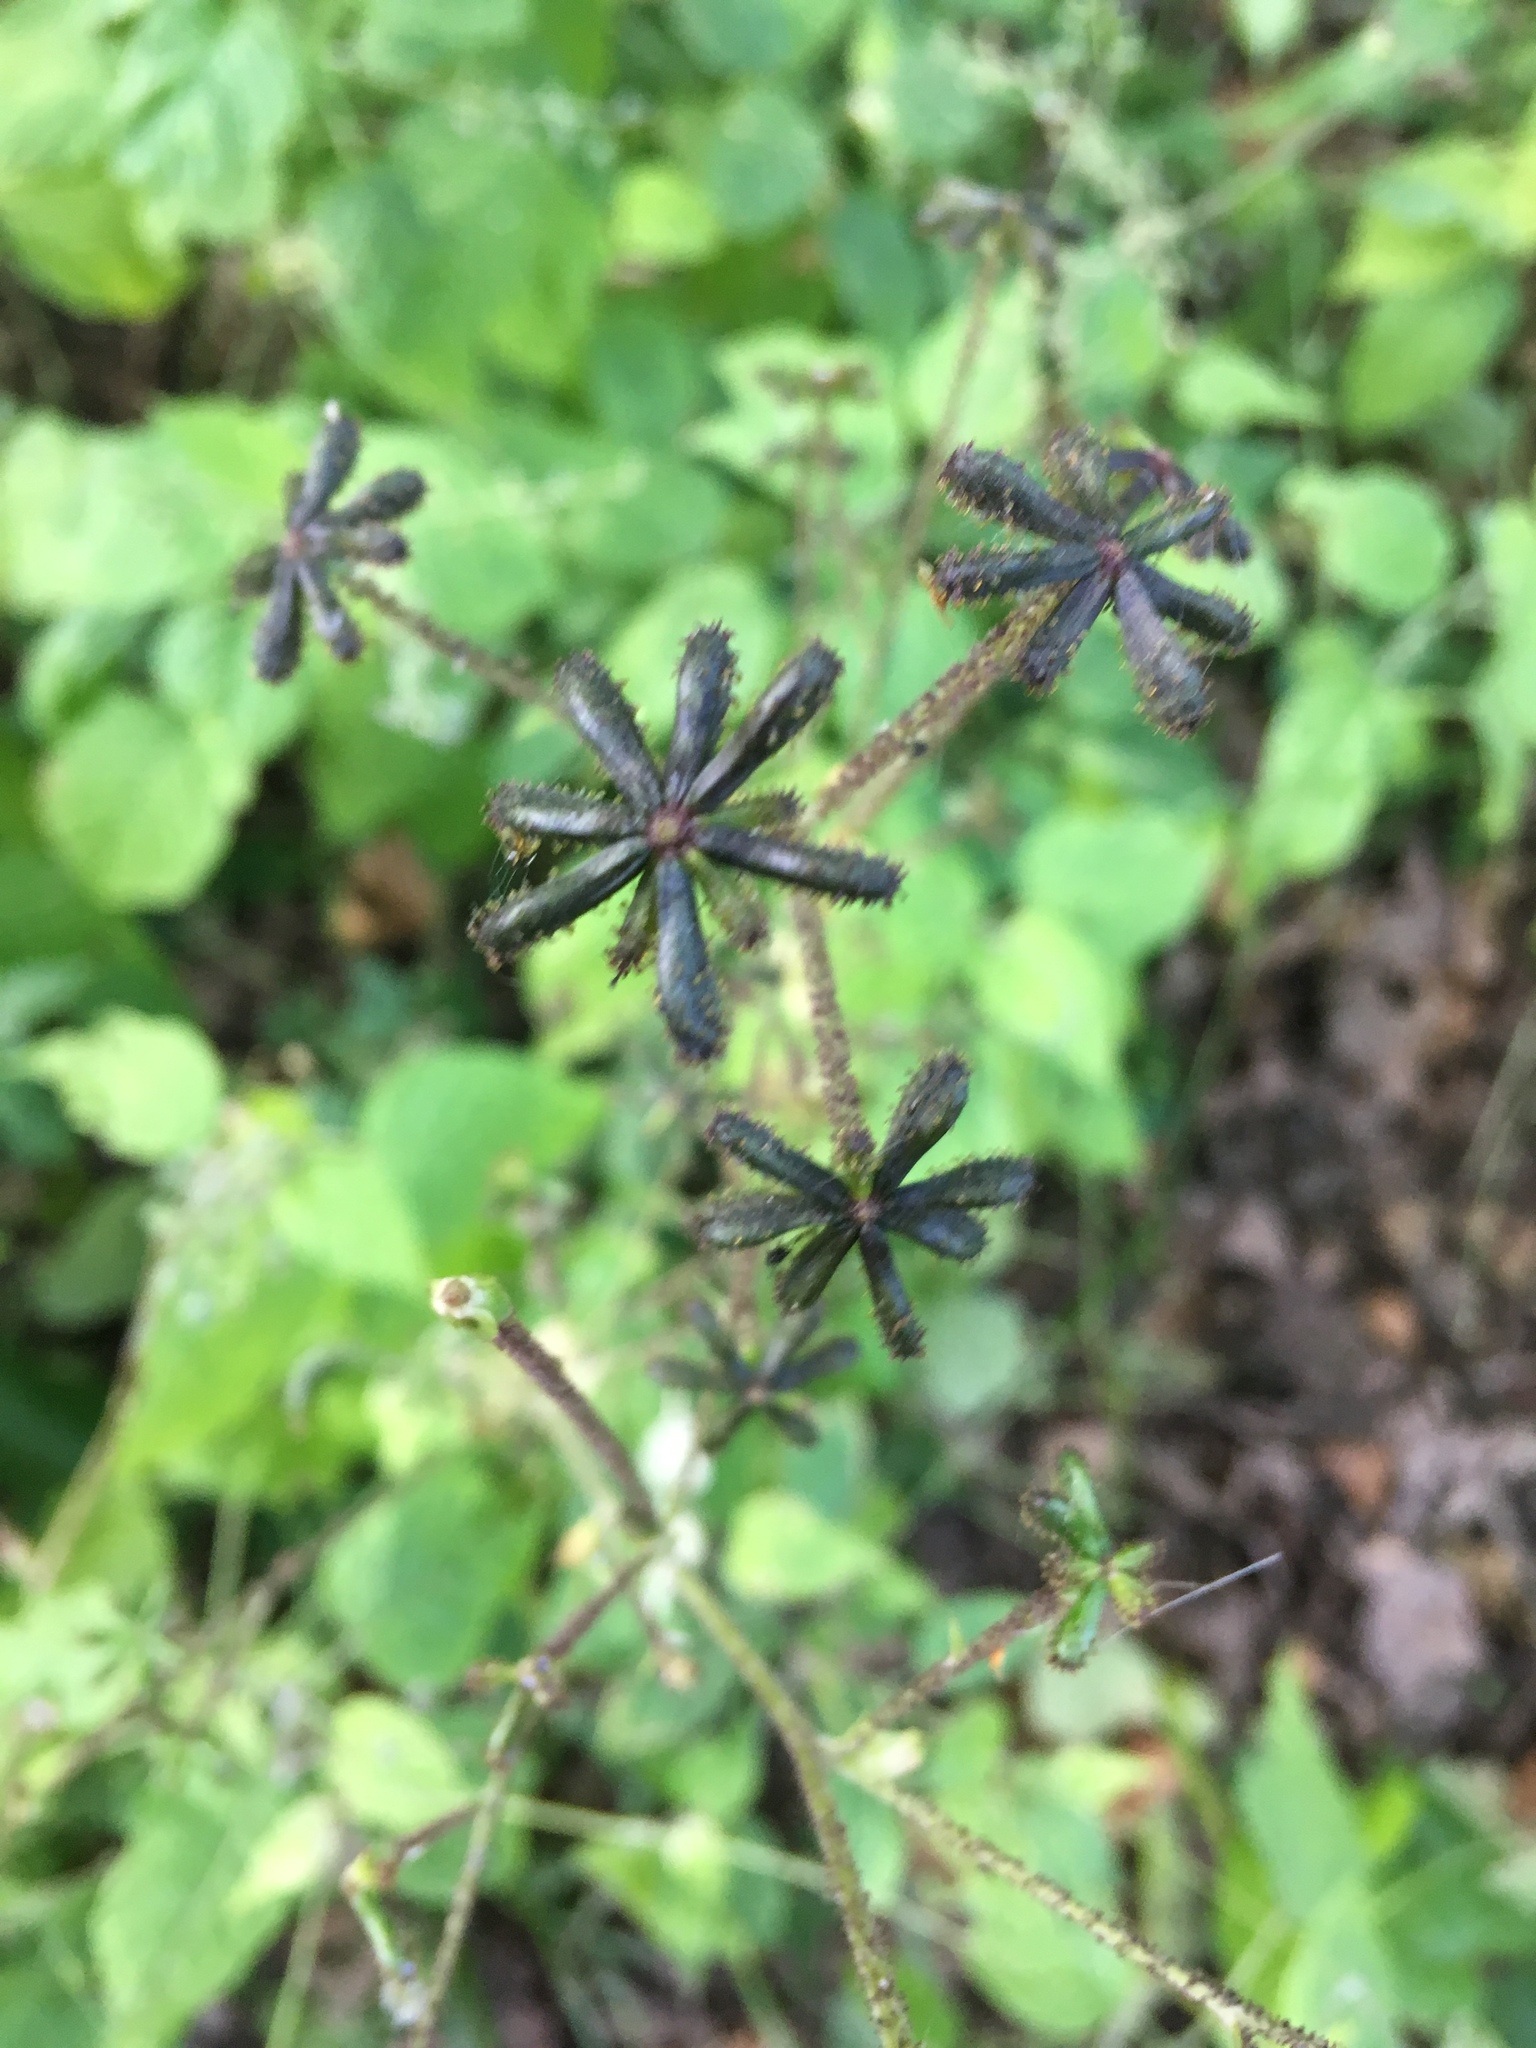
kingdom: Plantae
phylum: Tracheophyta
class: Magnoliopsida
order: Asterales
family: Asteraceae
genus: Adenocaulon
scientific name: Adenocaulon himalaicum
